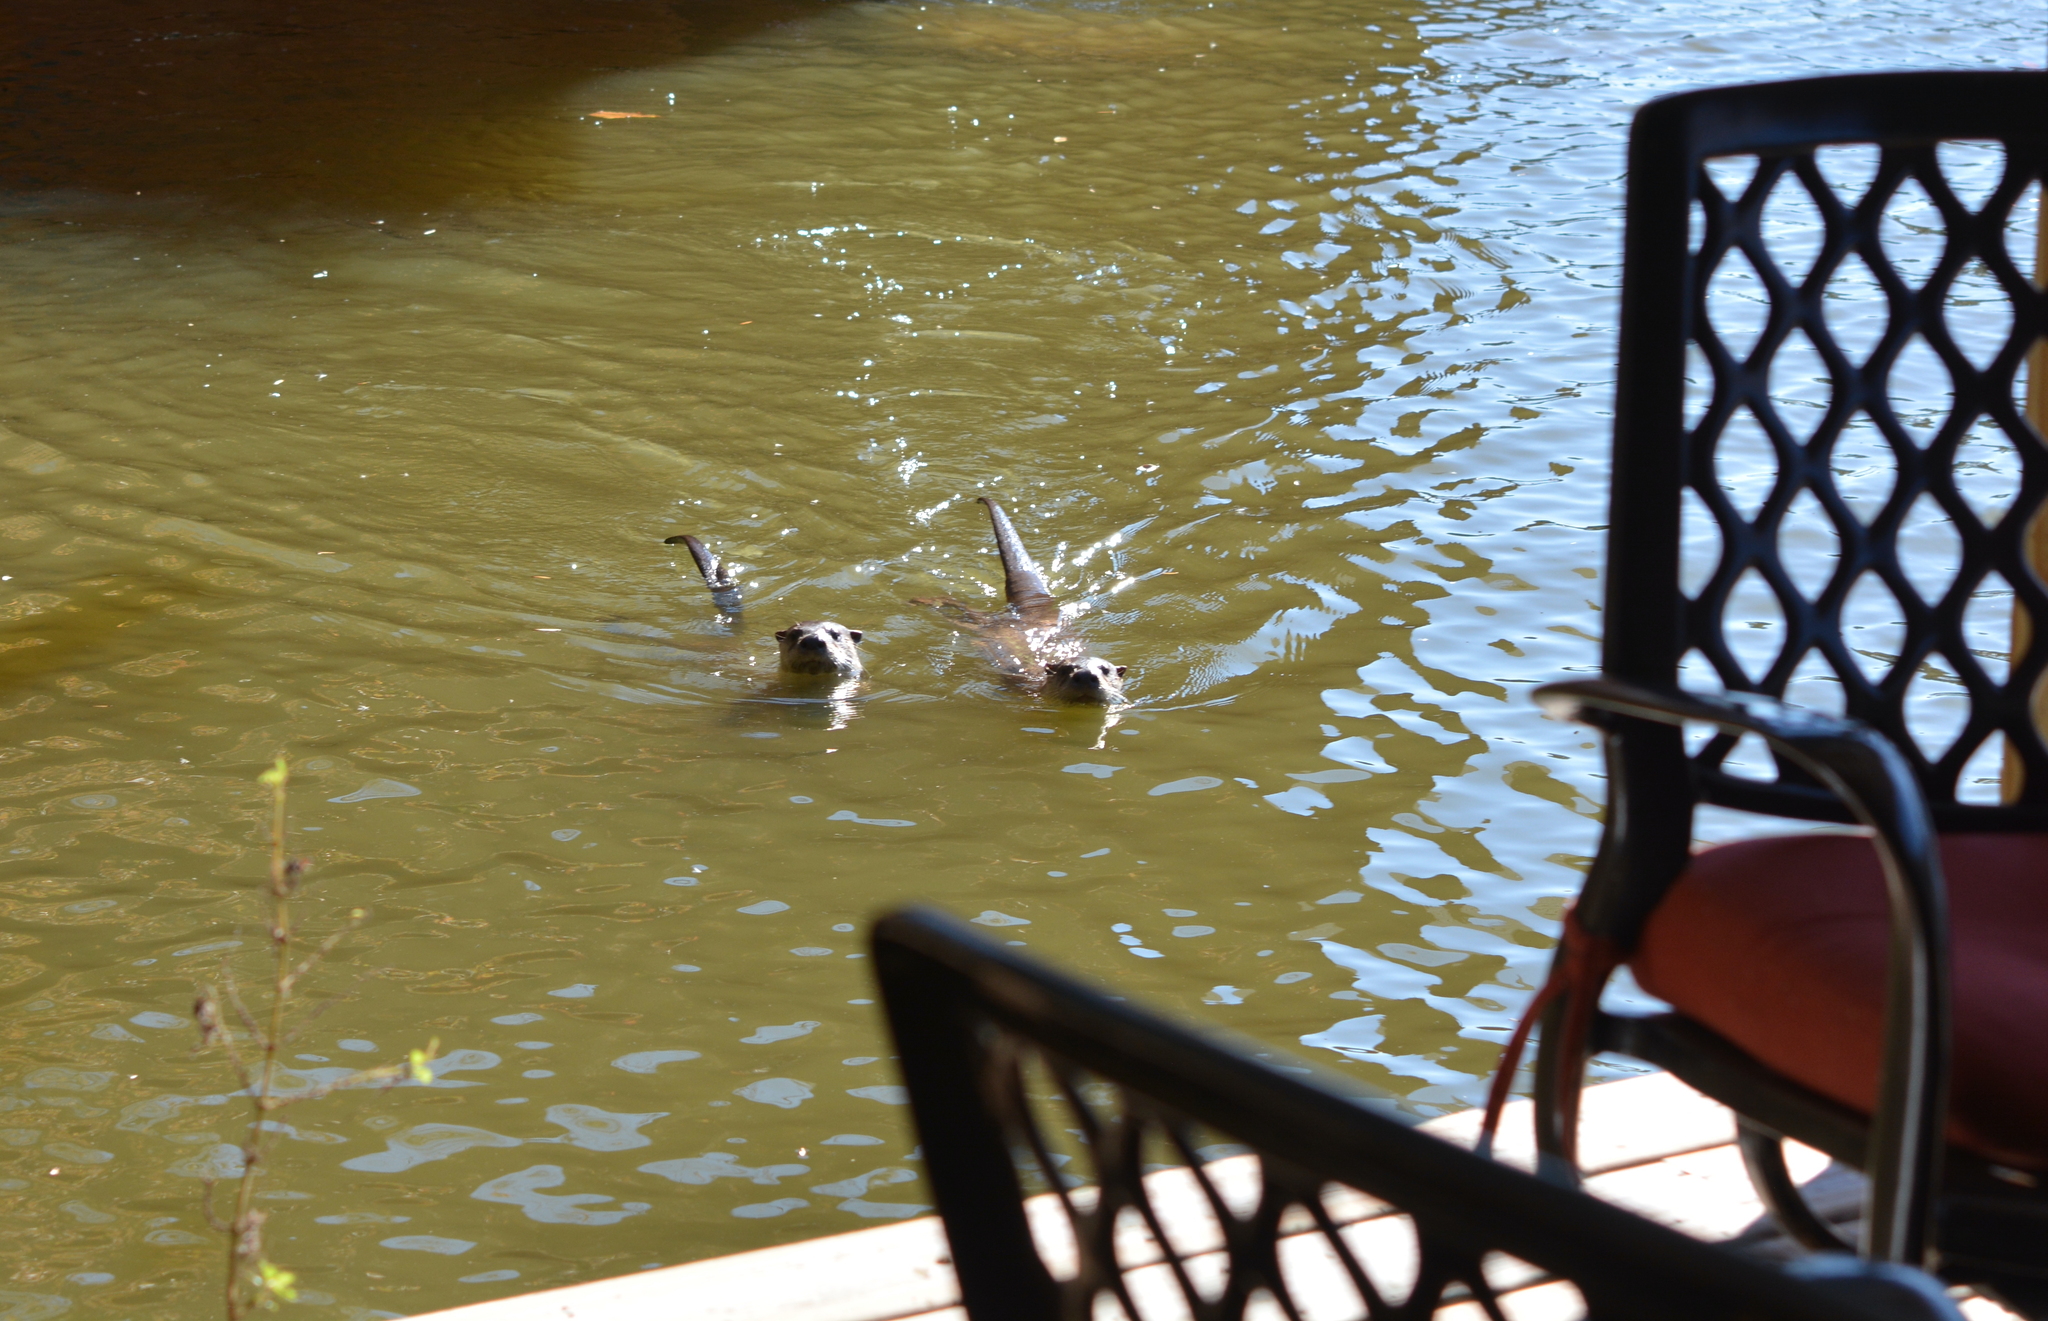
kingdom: Animalia
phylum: Chordata
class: Mammalia
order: Carnivora
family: Mustelidae
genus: Lontra
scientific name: Lontra canadensis
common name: North american river otter
